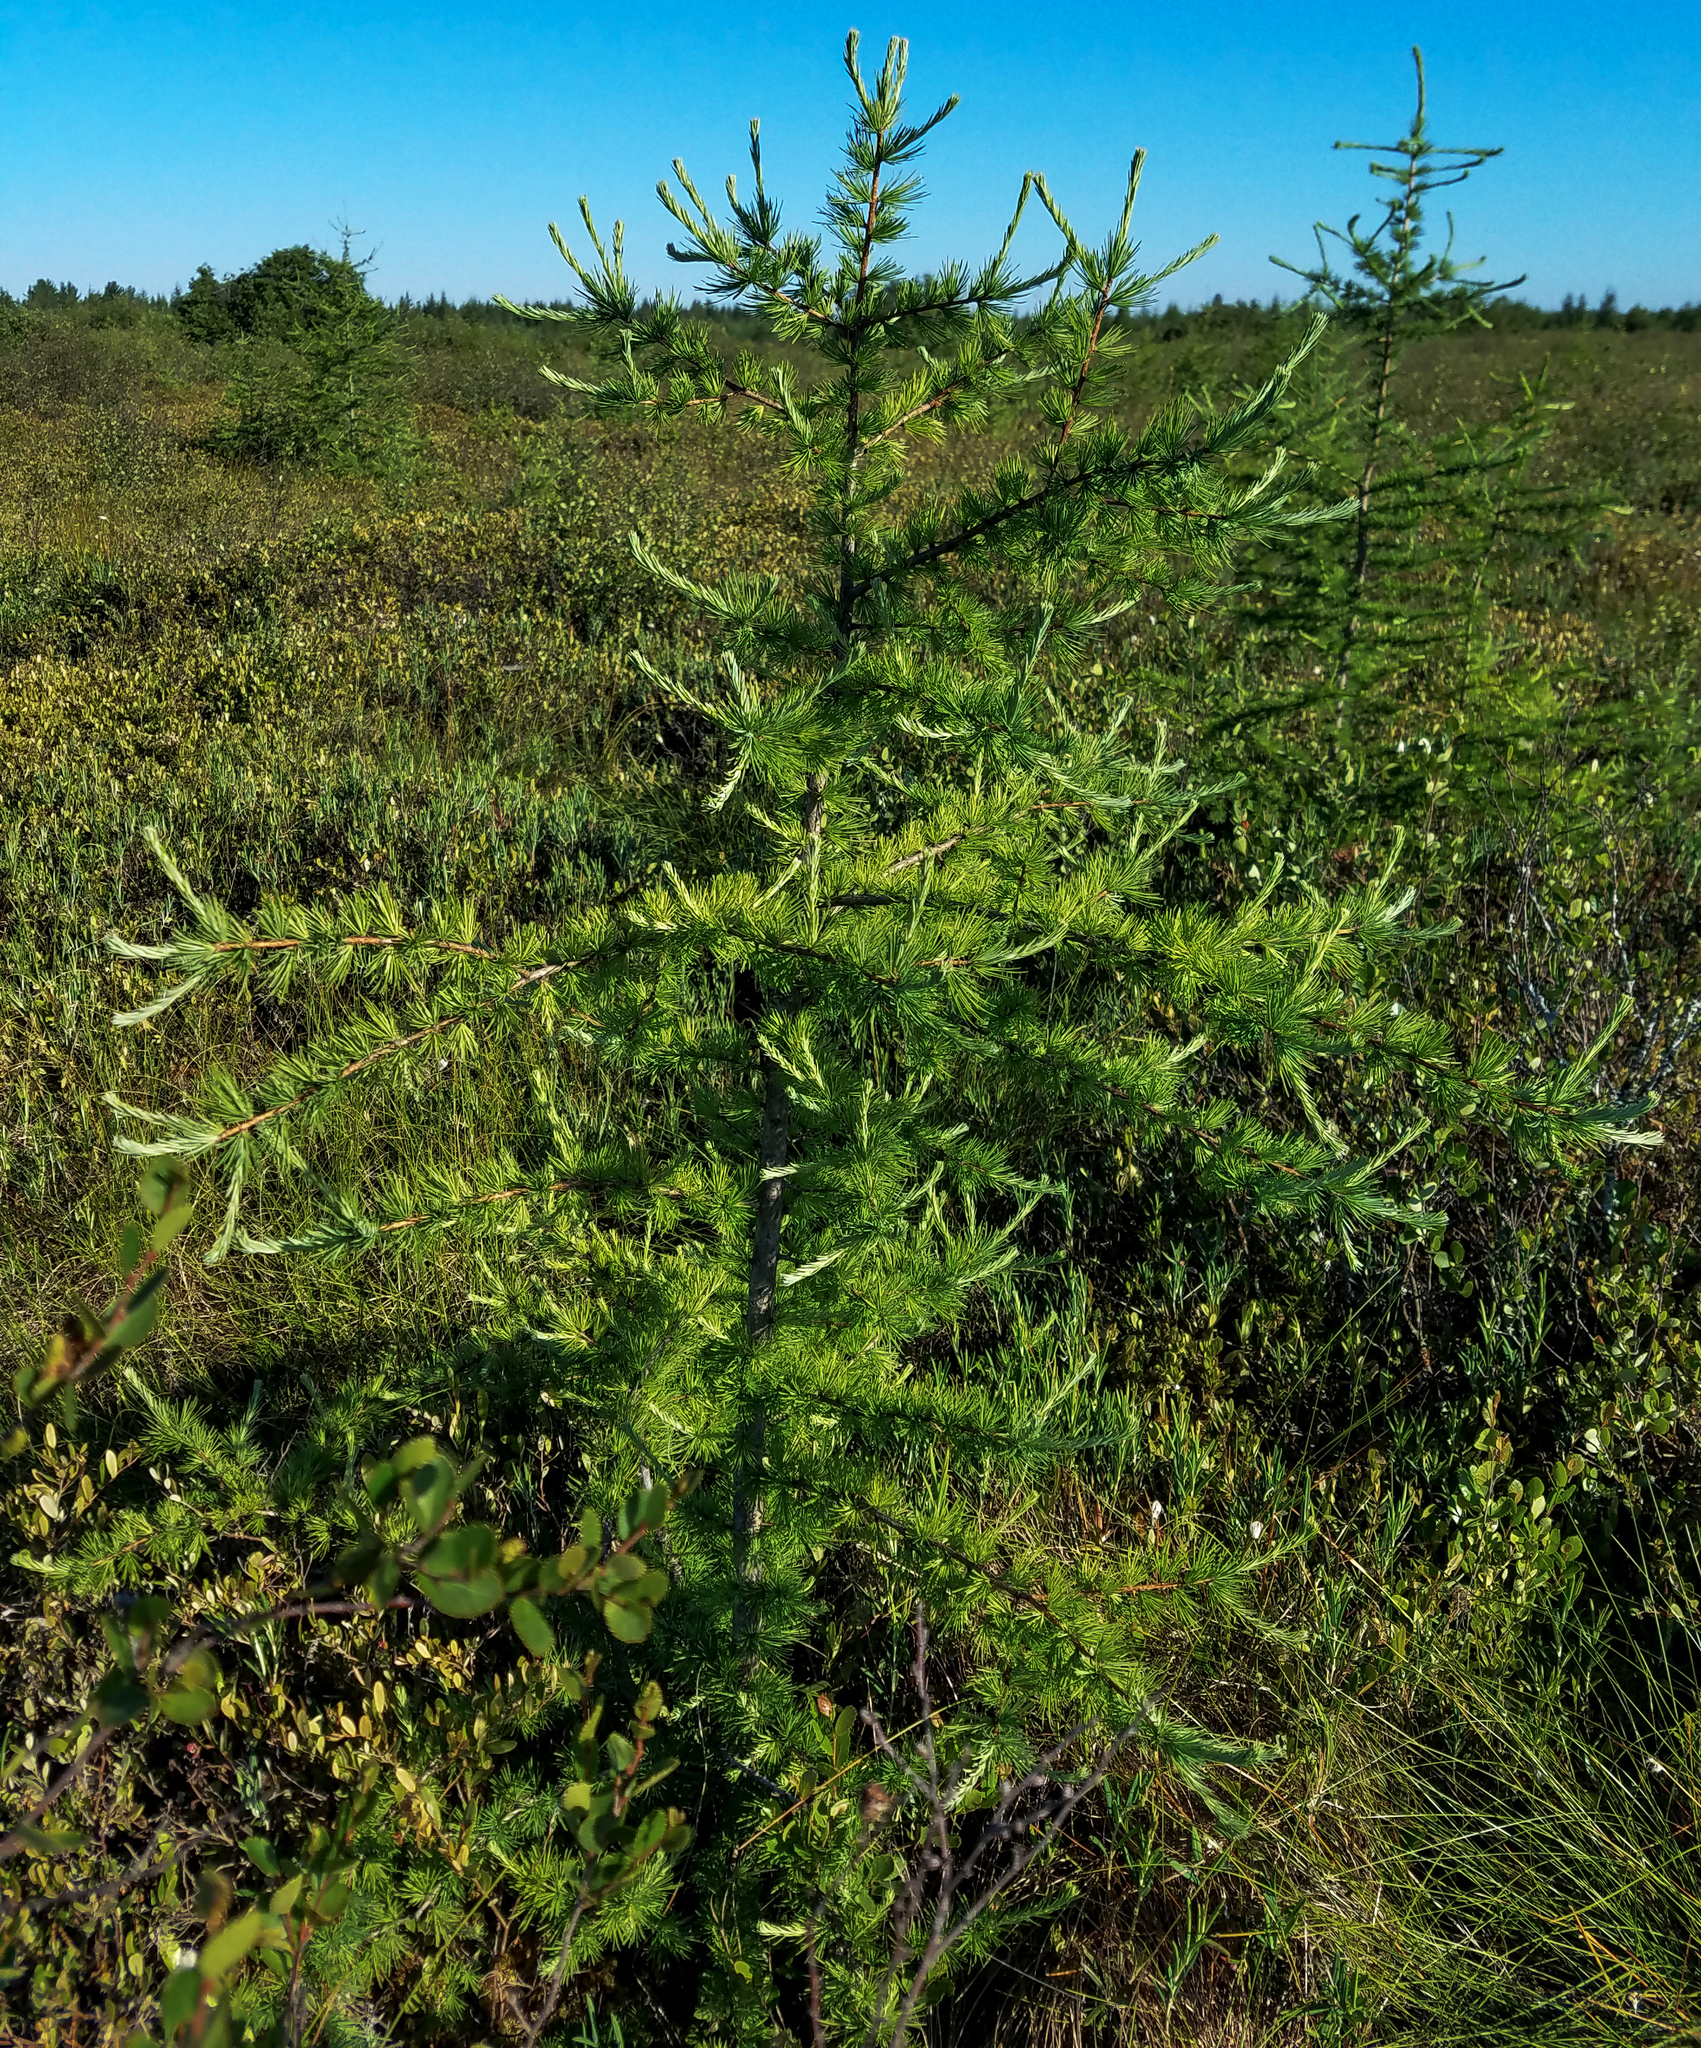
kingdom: Plantae
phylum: Tracheophyta
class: Pinopsida
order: Pinales
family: Pinaceae
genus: Larix
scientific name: Larix laricina
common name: American larch
